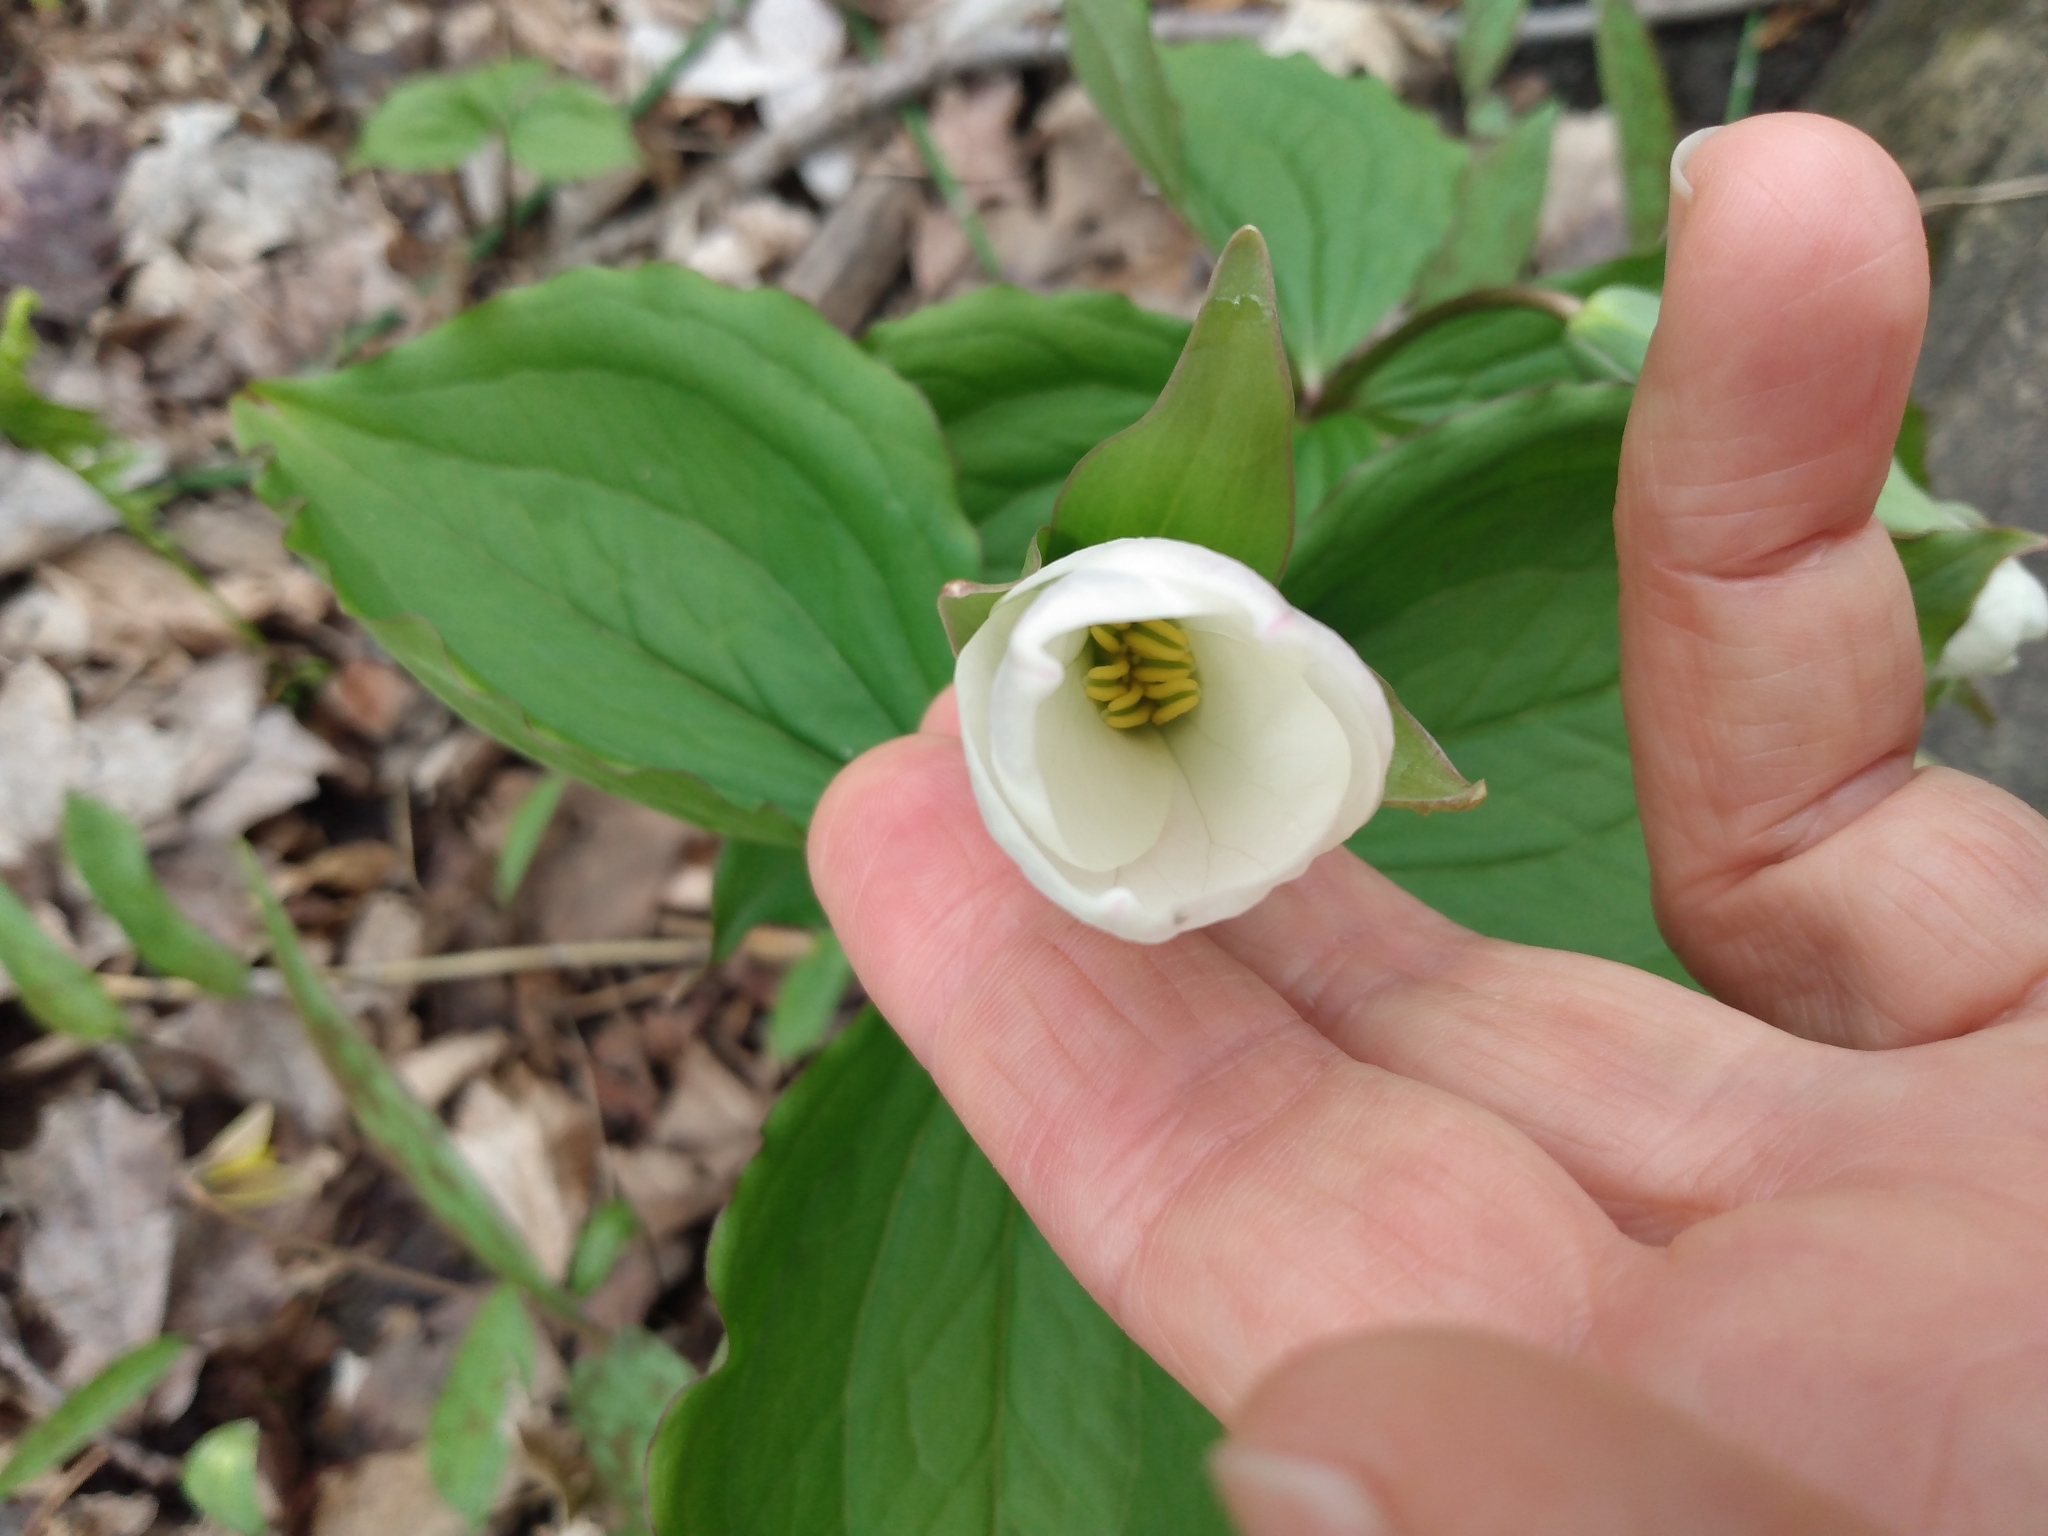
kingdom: Plantae
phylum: Tracheophyta
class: Liliopsida
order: Liliales
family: Melanthiaceae
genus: Trillium
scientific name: Trillium grandiflorum
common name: Great white trillium
